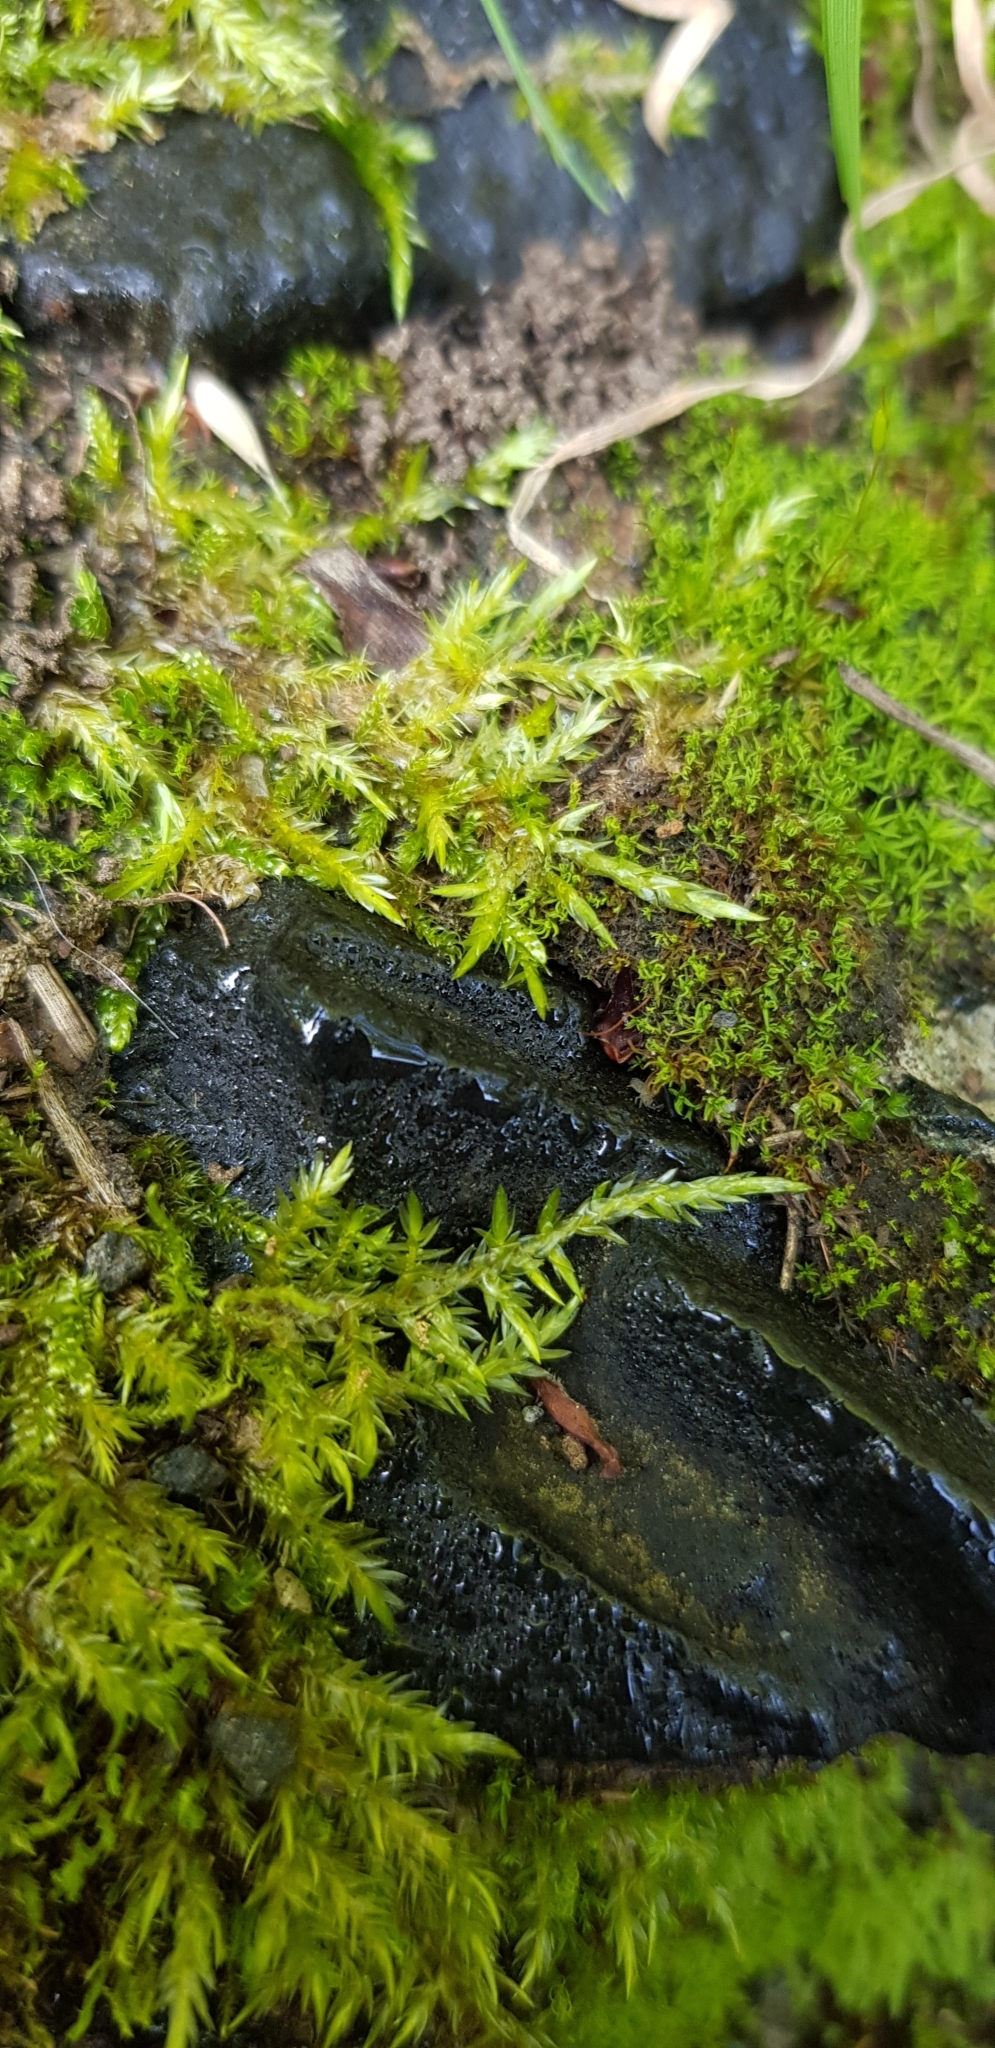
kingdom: Plantae
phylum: Bryophyta
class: Bryopsida
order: Hypnales
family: Pylaisiaceae
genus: Calliergonella
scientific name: Calliergonella cuspidata
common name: Common large wetland moss
